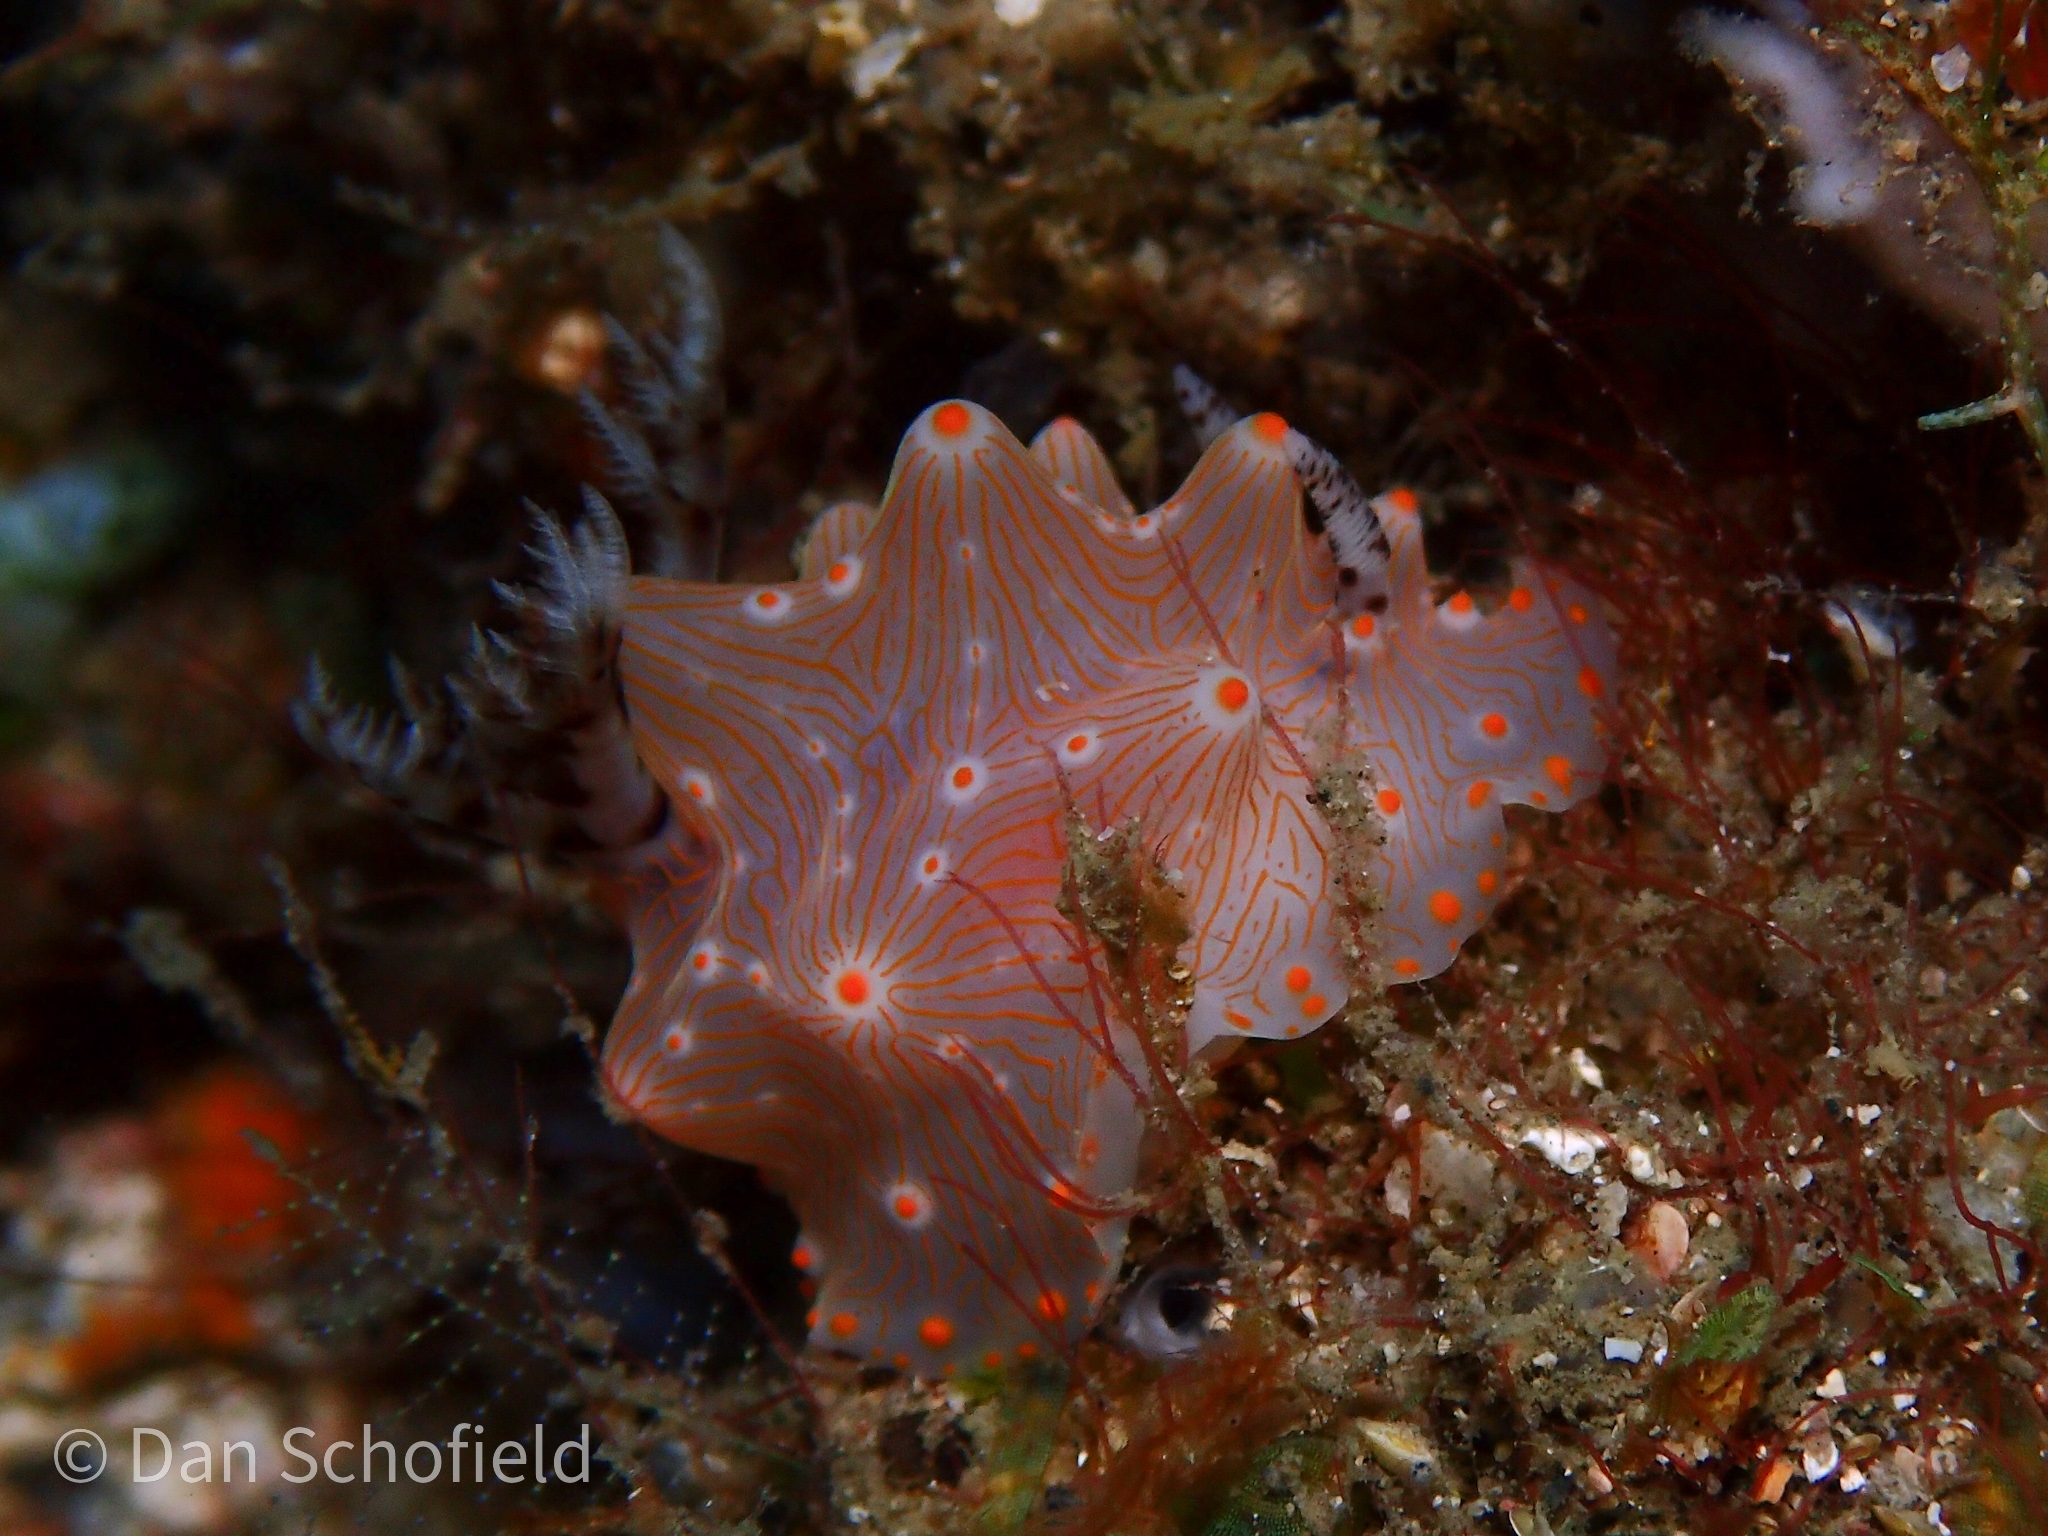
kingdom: Animalia
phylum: Mollusca
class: Gastropoda
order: Nudibranchia
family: Discodorididae
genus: Halgerda
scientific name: Halgerda batangas
